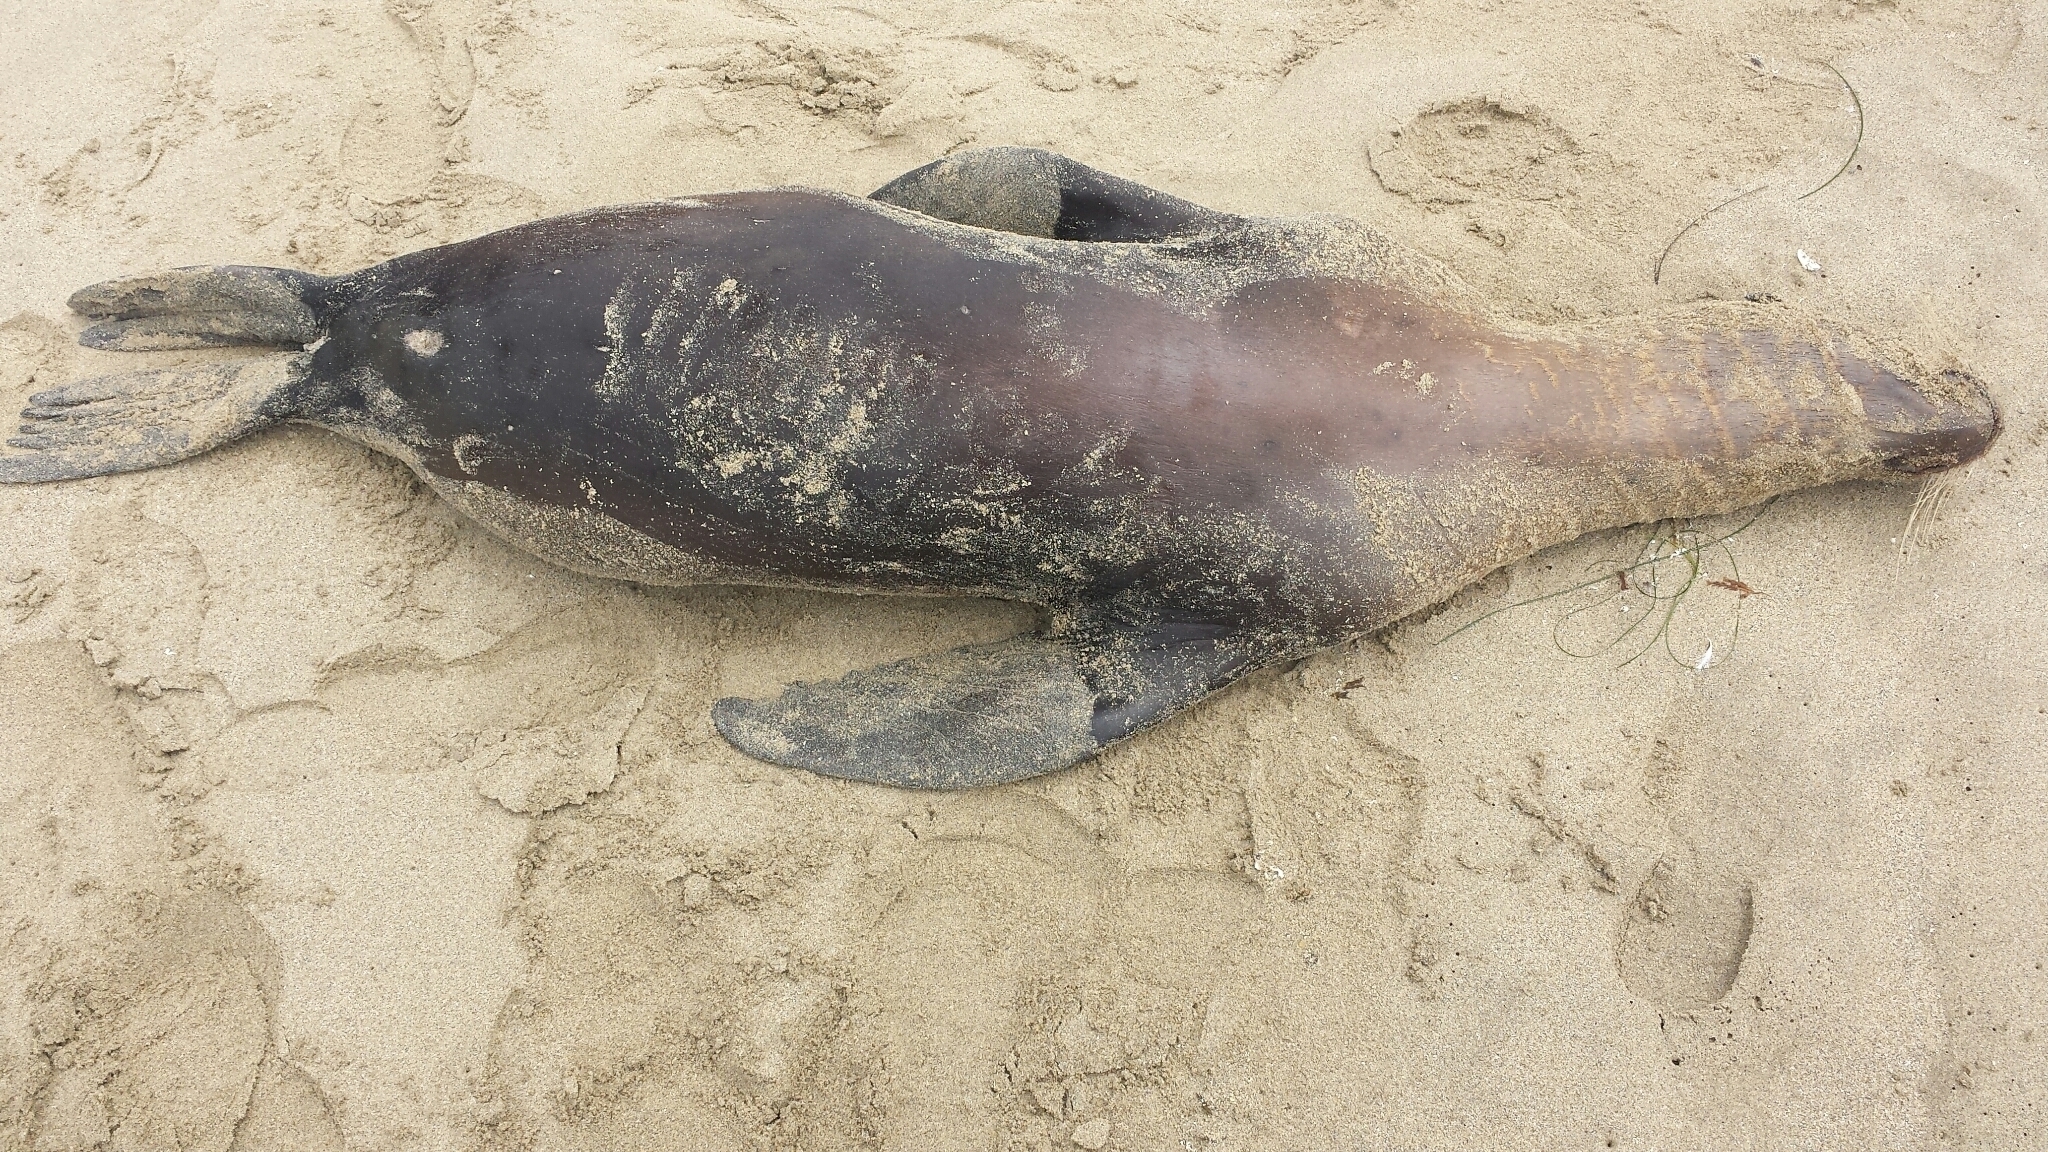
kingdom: Animalia
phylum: Chordata
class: Mammalia
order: Carnivora
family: Otariidae
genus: Zalophus
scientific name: Zalophus californianus
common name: California sea lion
